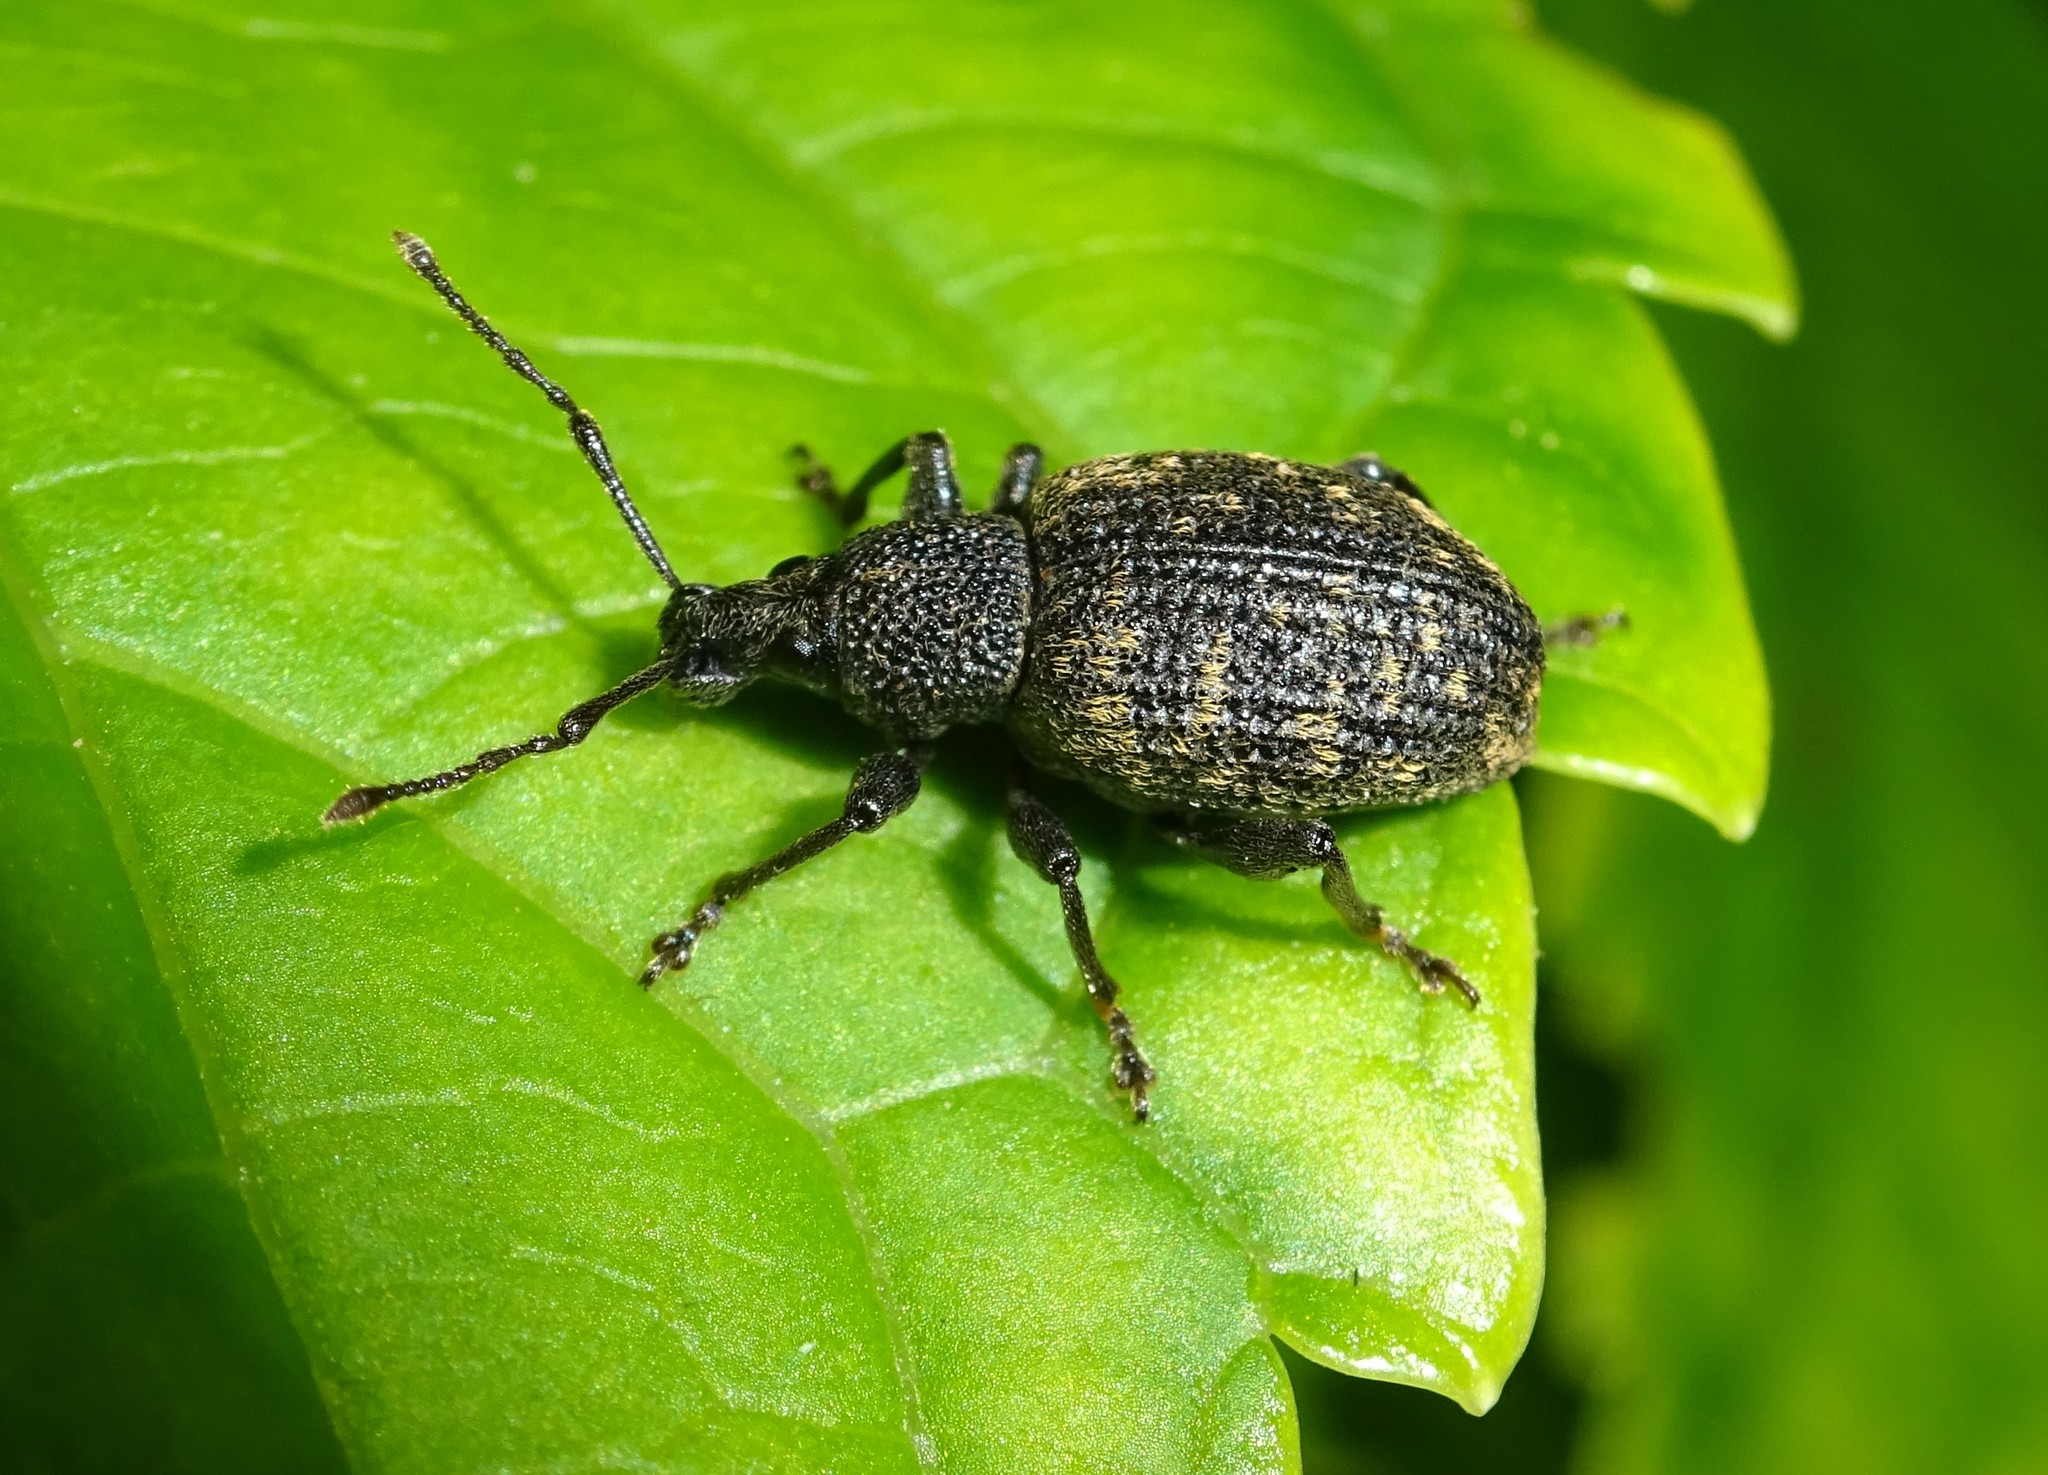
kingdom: Animalia
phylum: Arthropoda
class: Insecta
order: Coleoptera
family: Curculionidae
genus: Otiorhynchus
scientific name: Otiorhynchus sulcatus
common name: Black vine weevil
